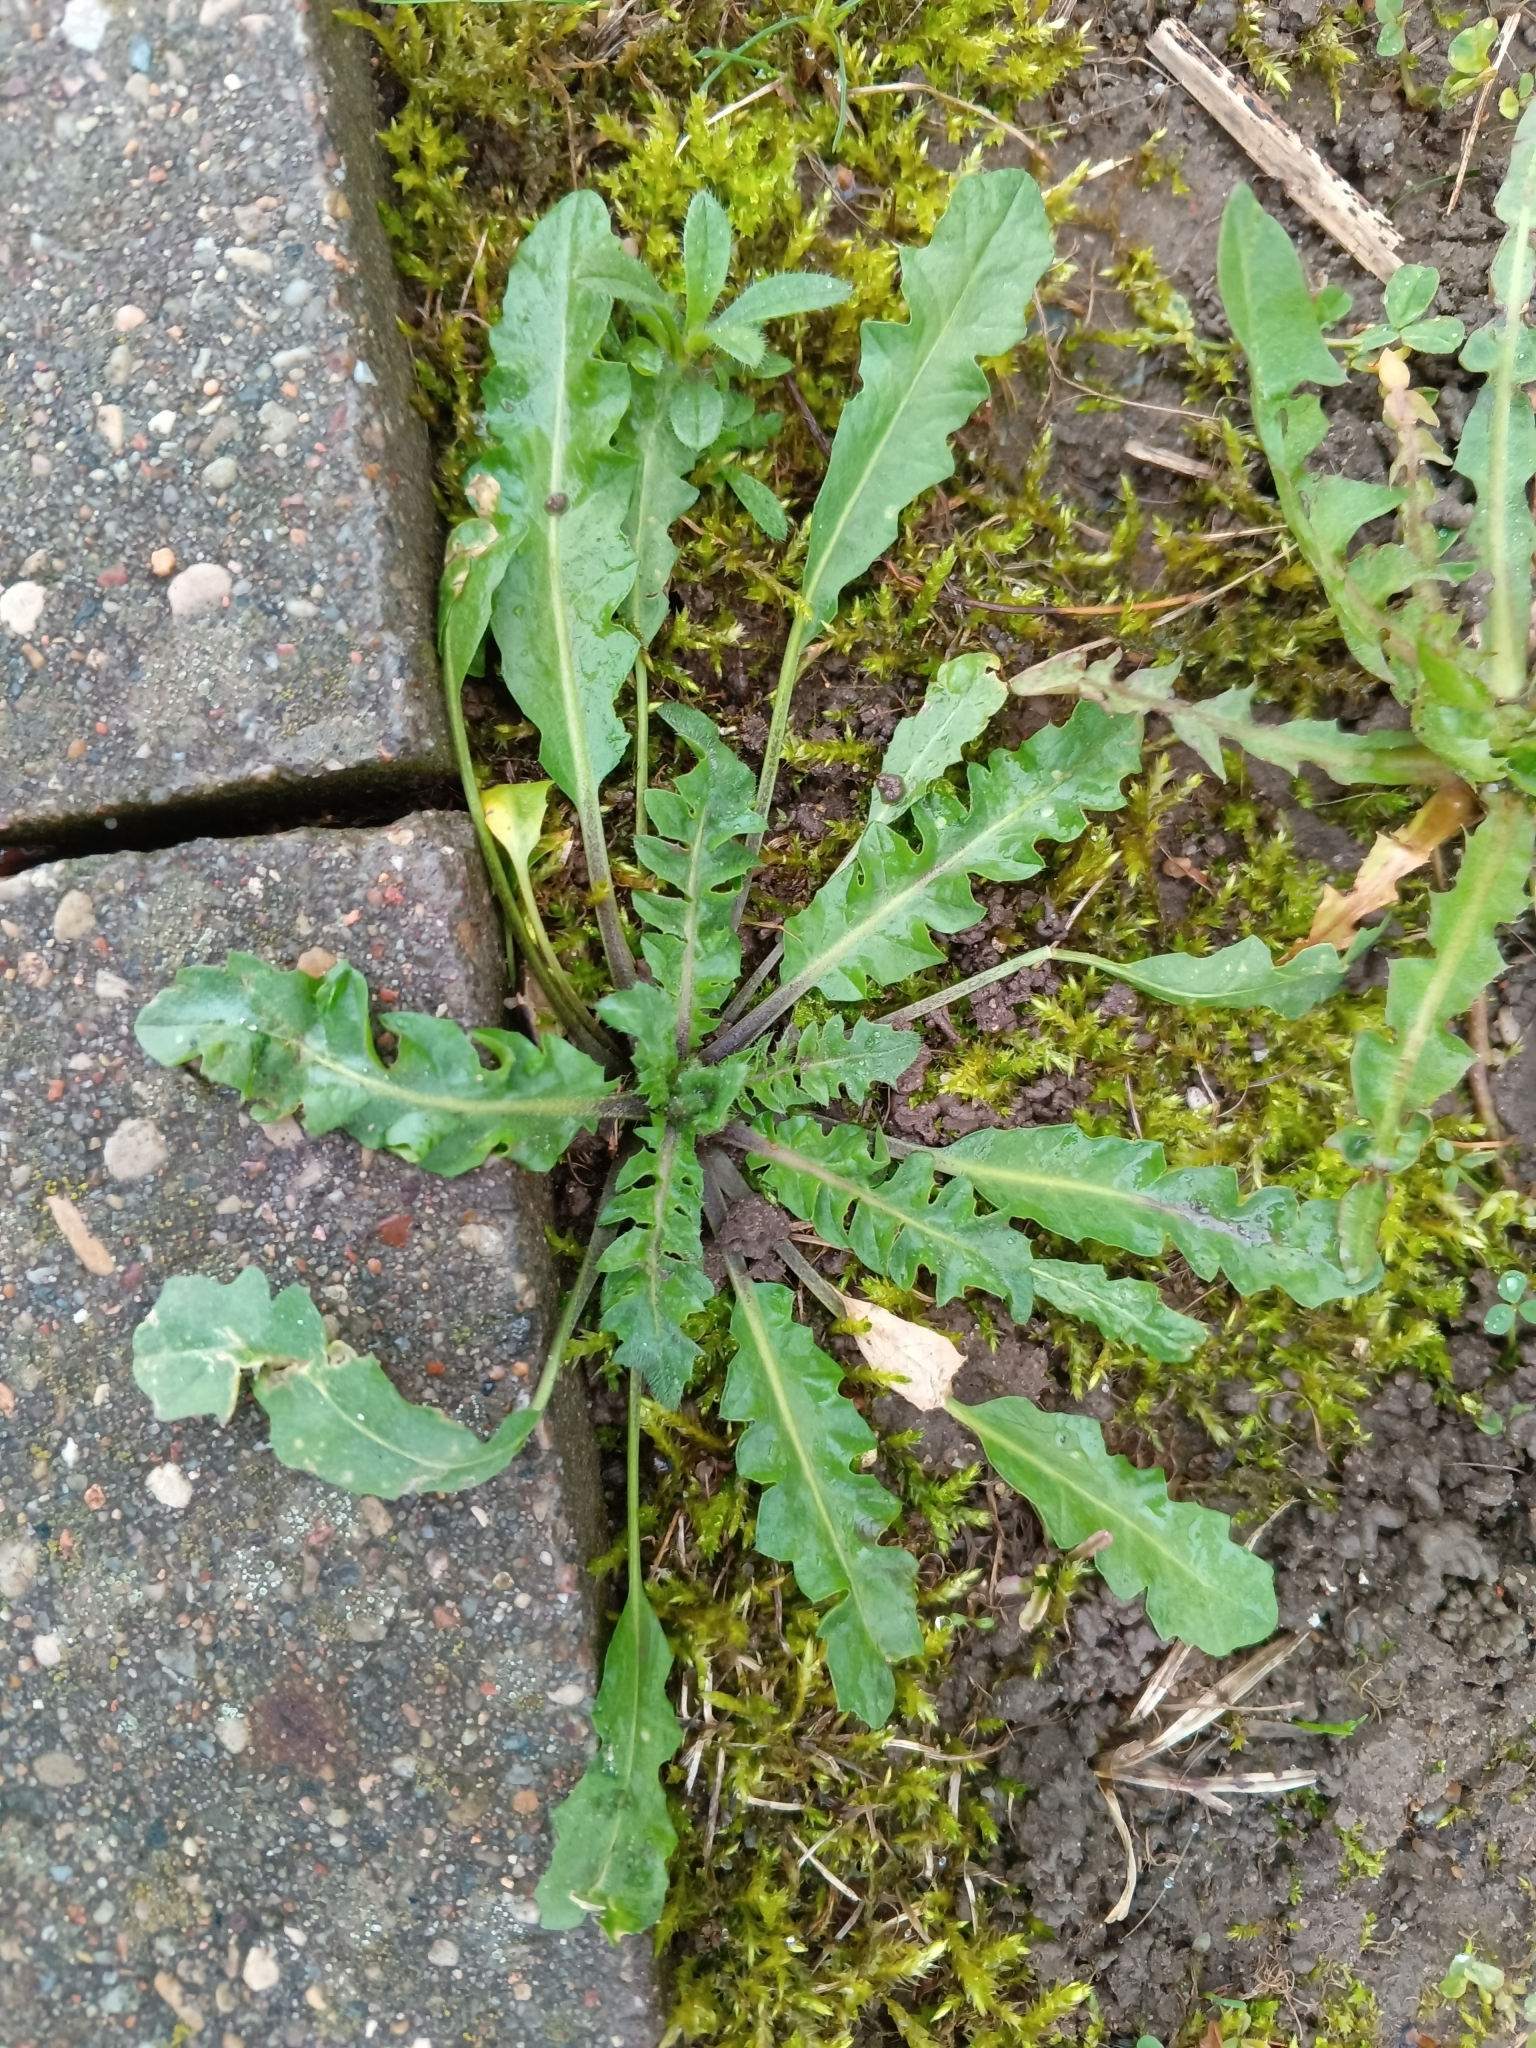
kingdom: Plantae
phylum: Tracheophyta
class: Magnoliopsida
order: Brassicales
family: Brassicaceae
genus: Capsella
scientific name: Capsella bursa-pastoris
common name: Shepherd's purse
